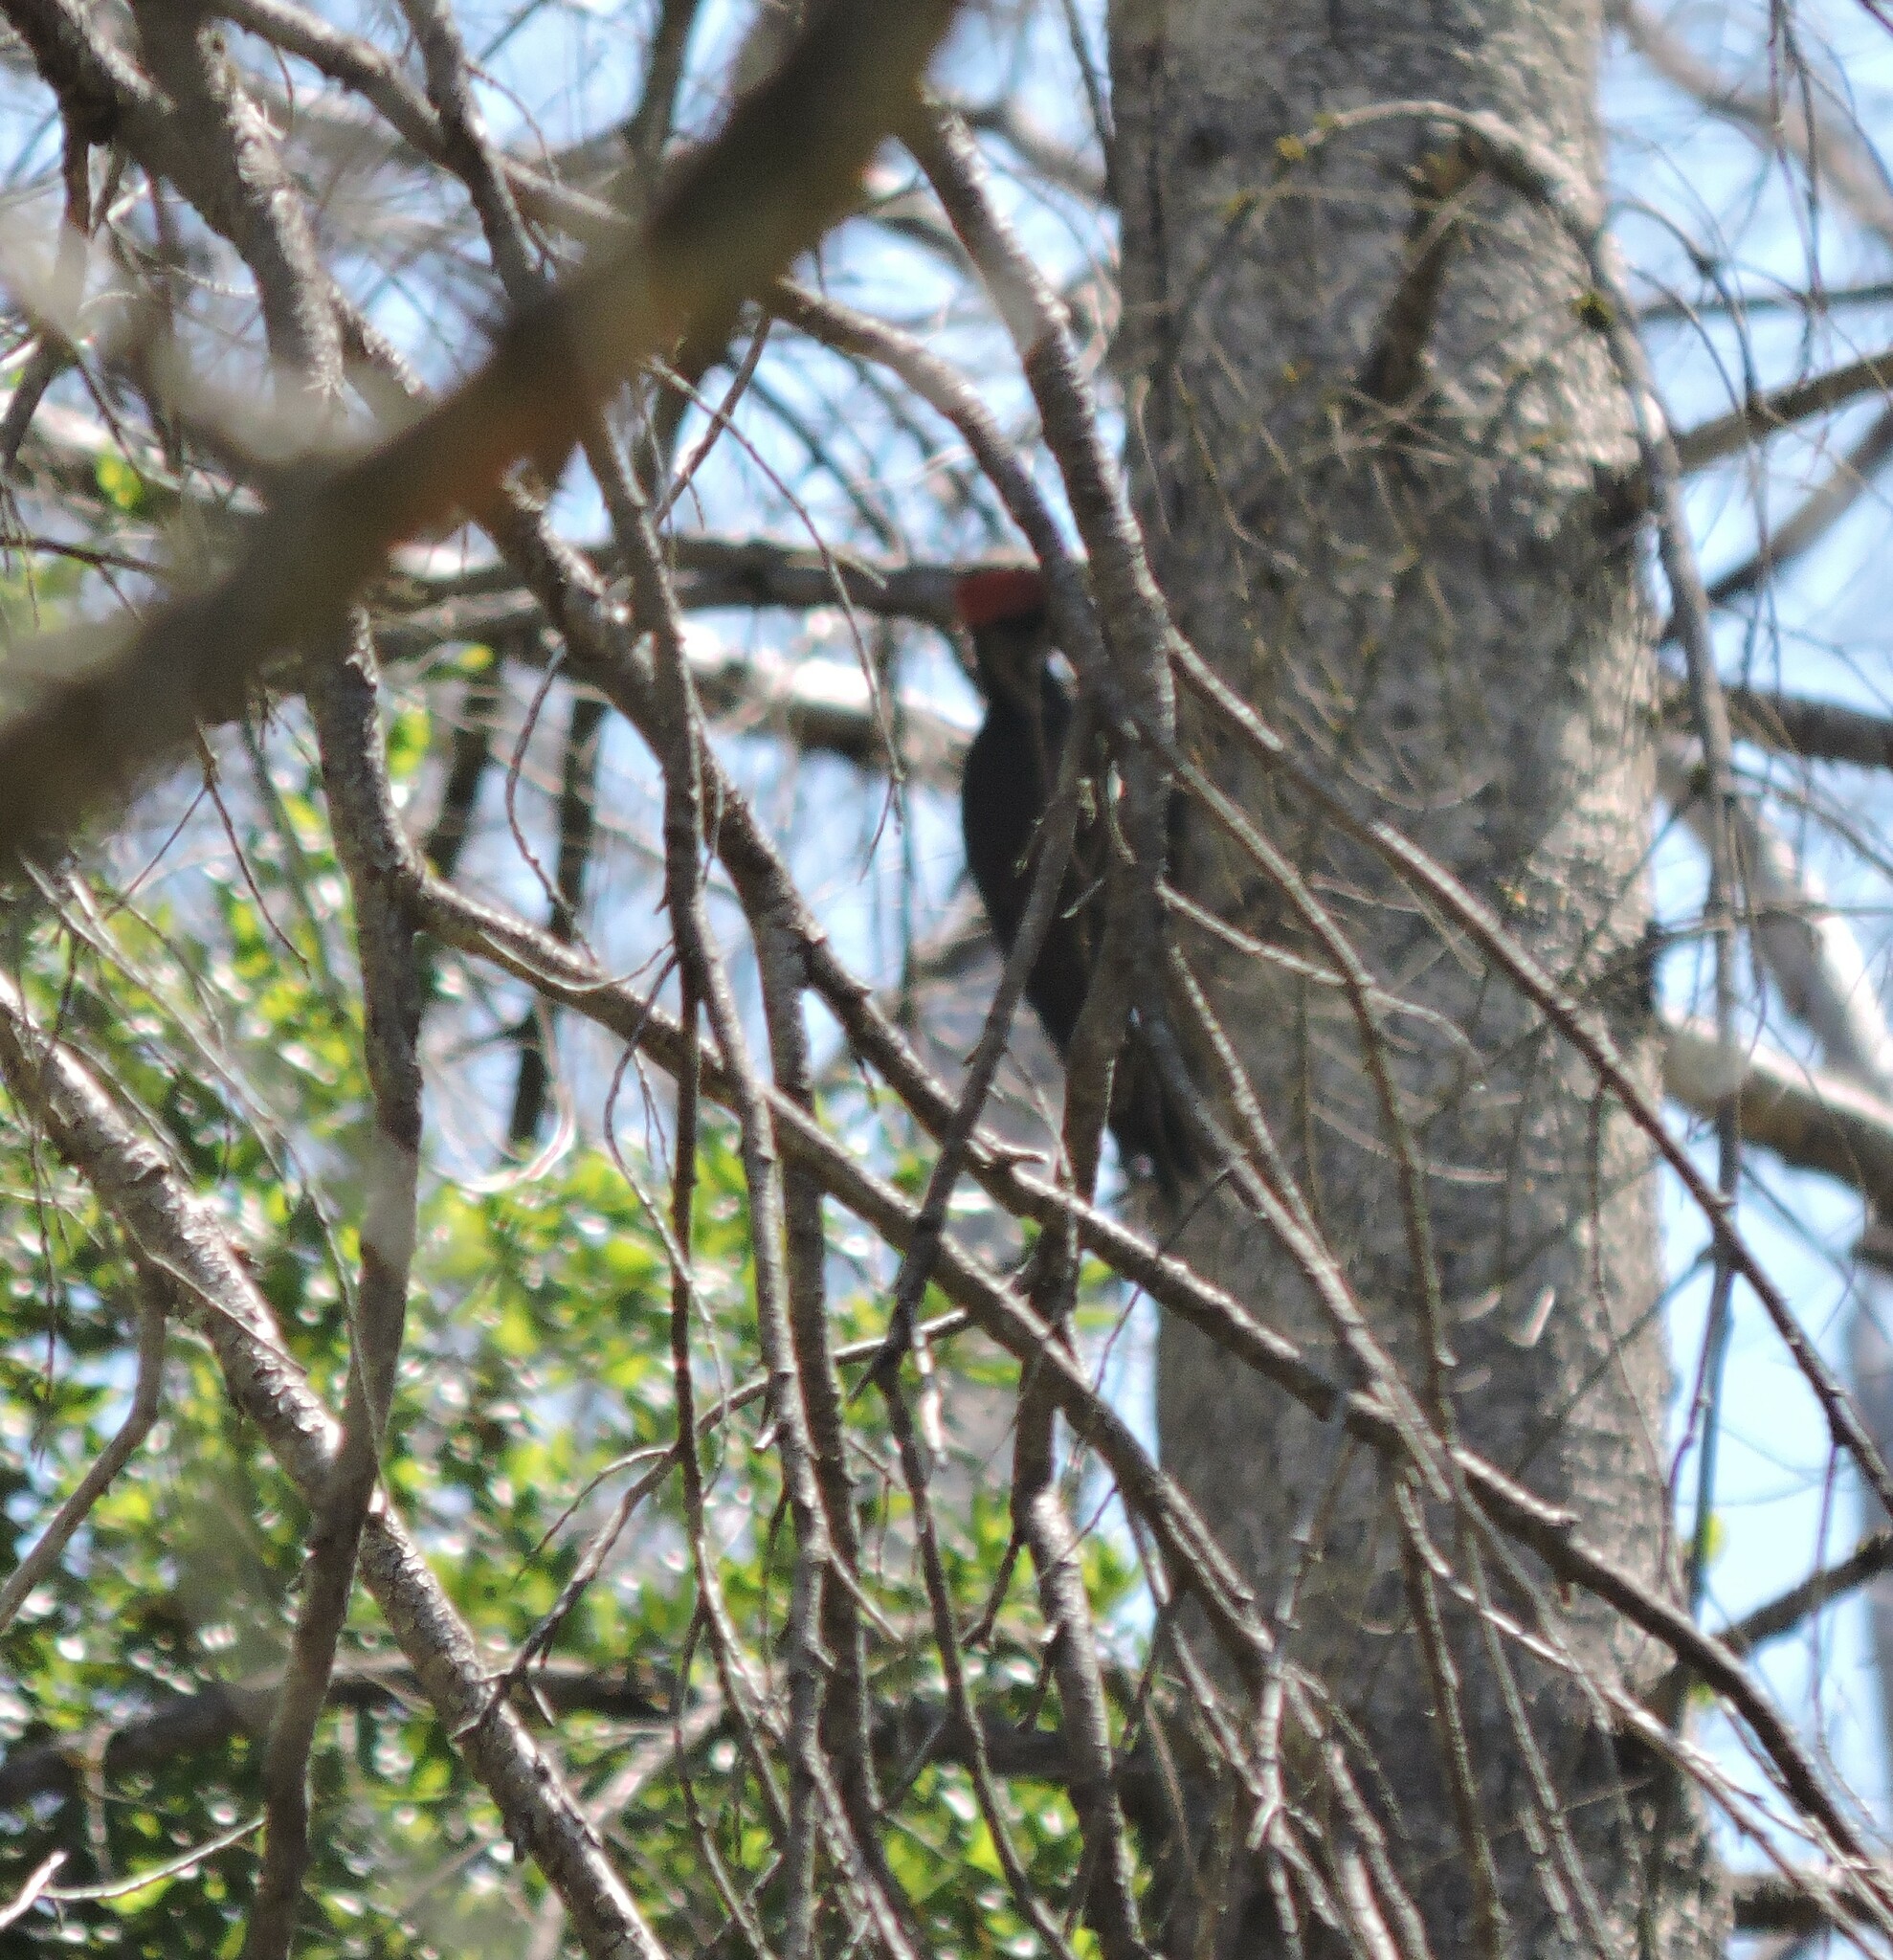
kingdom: Animalia
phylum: Chordata
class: Aves
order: Piciformes
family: Picidae
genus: Dryocopus
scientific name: Dryocopus pileatus
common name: Pileated woodpecker
